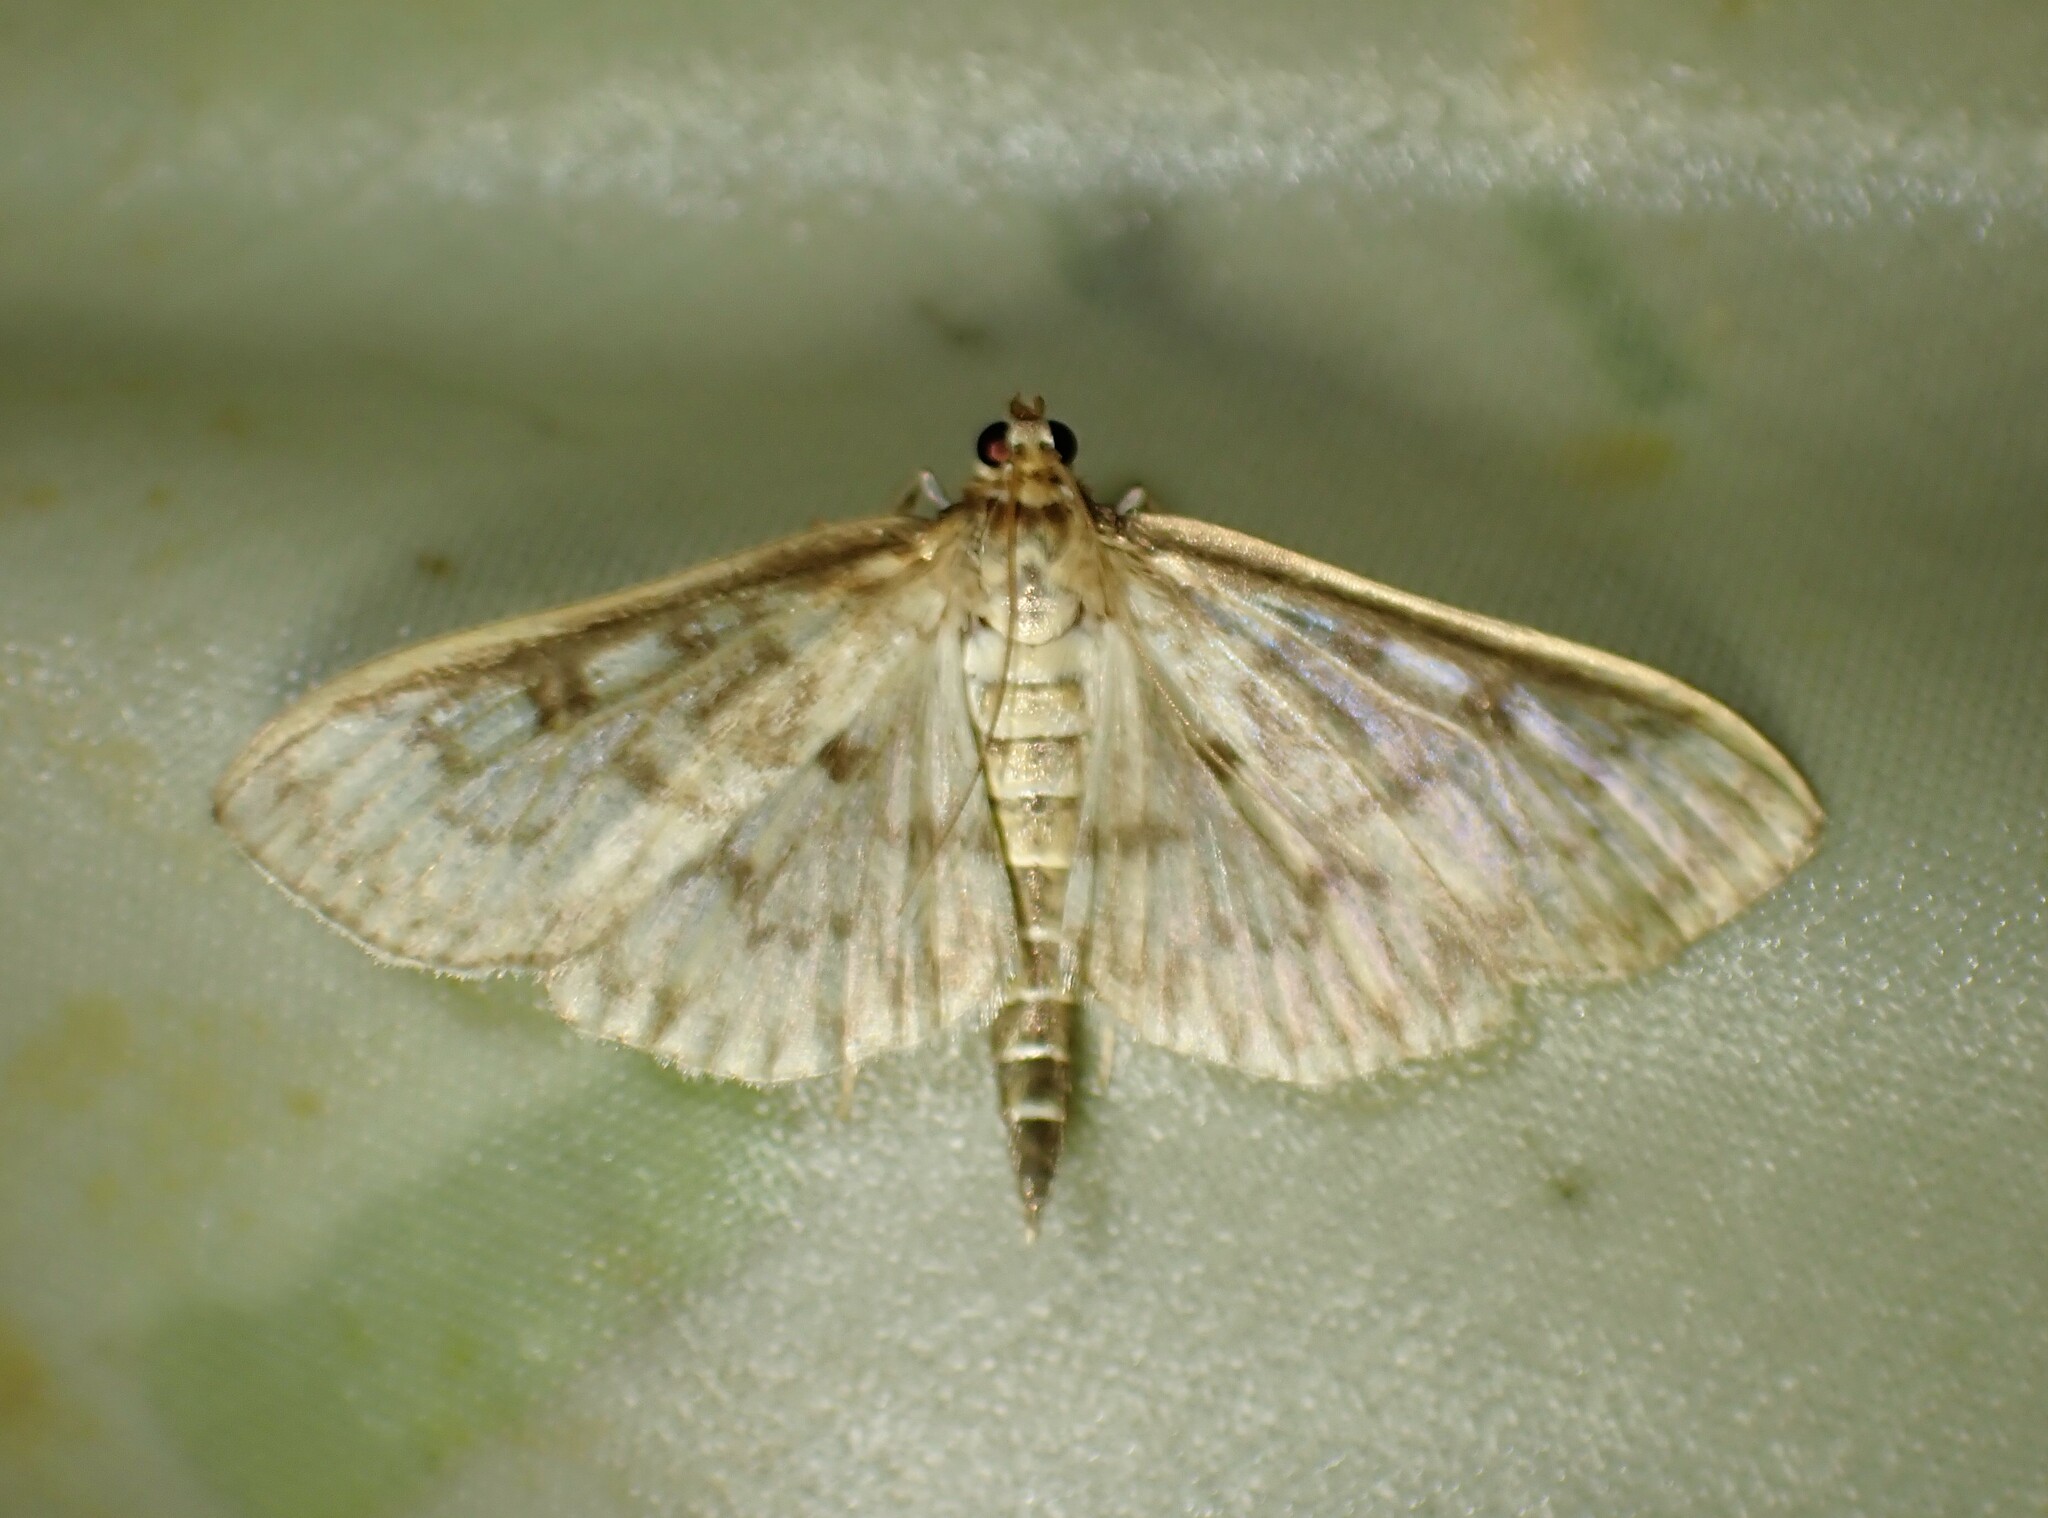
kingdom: Animalia
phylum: Arthropoda
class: Insecta
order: Lepidoptera
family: Crambidae
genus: Herpetogramma
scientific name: Herpetogramma aquilonalis
